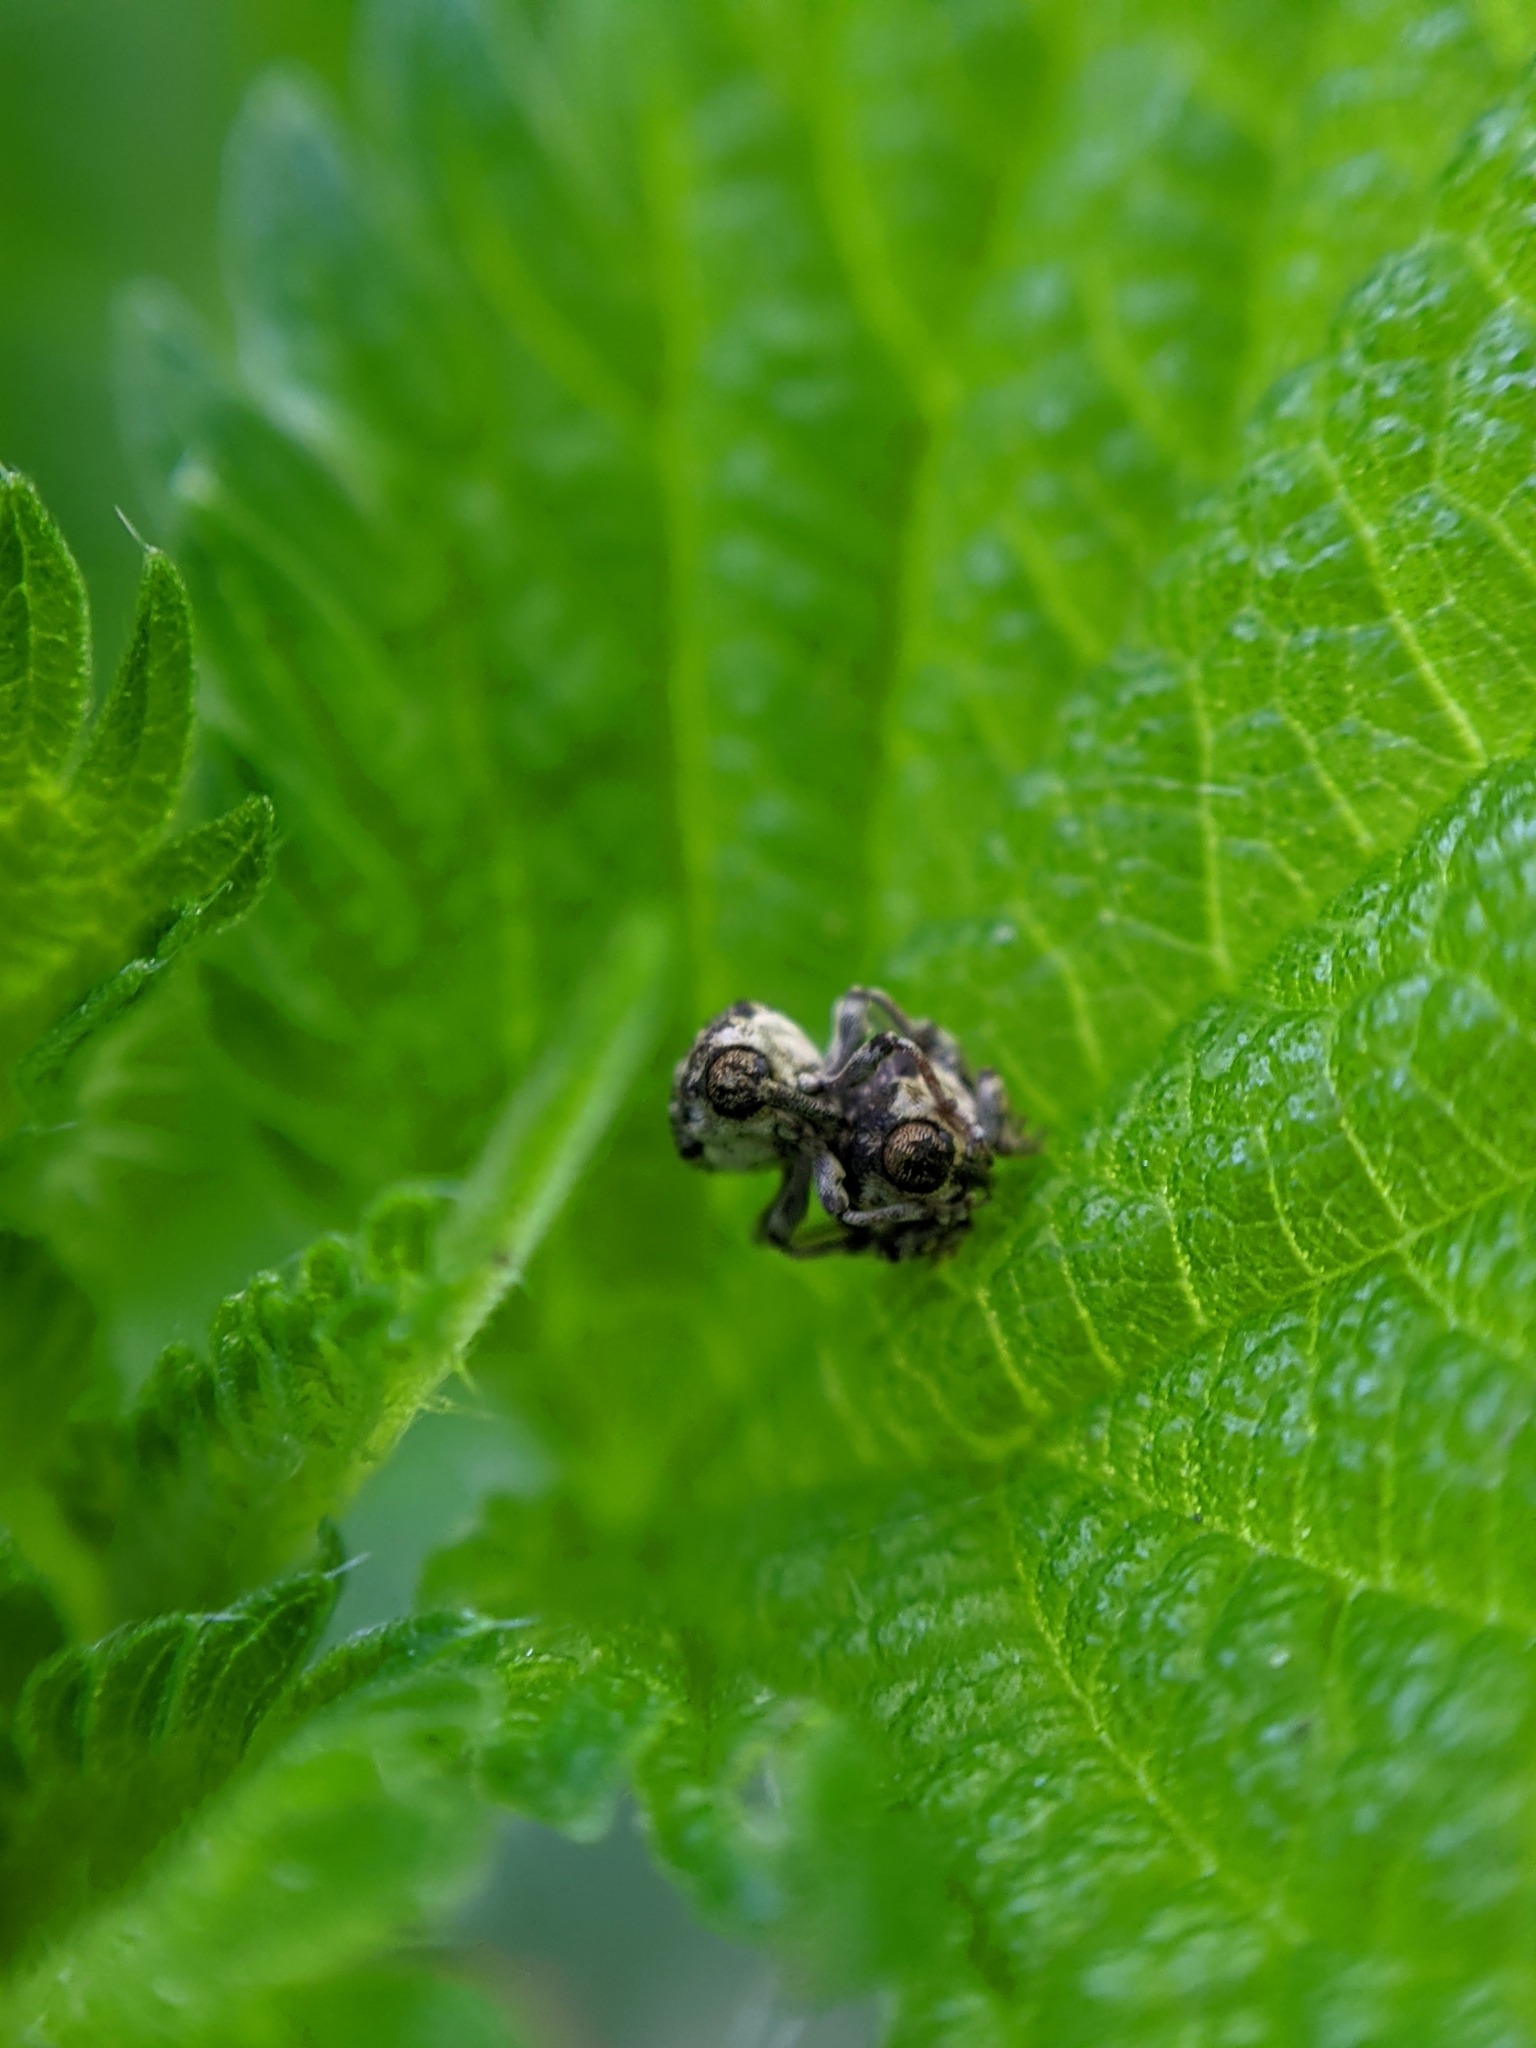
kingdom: Animalia
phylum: Arthropoda
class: Insecta
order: Coleoptera
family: Curculionidae
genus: Nedyus
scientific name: Nedyus quadrimaculatus
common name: Small nettle weevil
